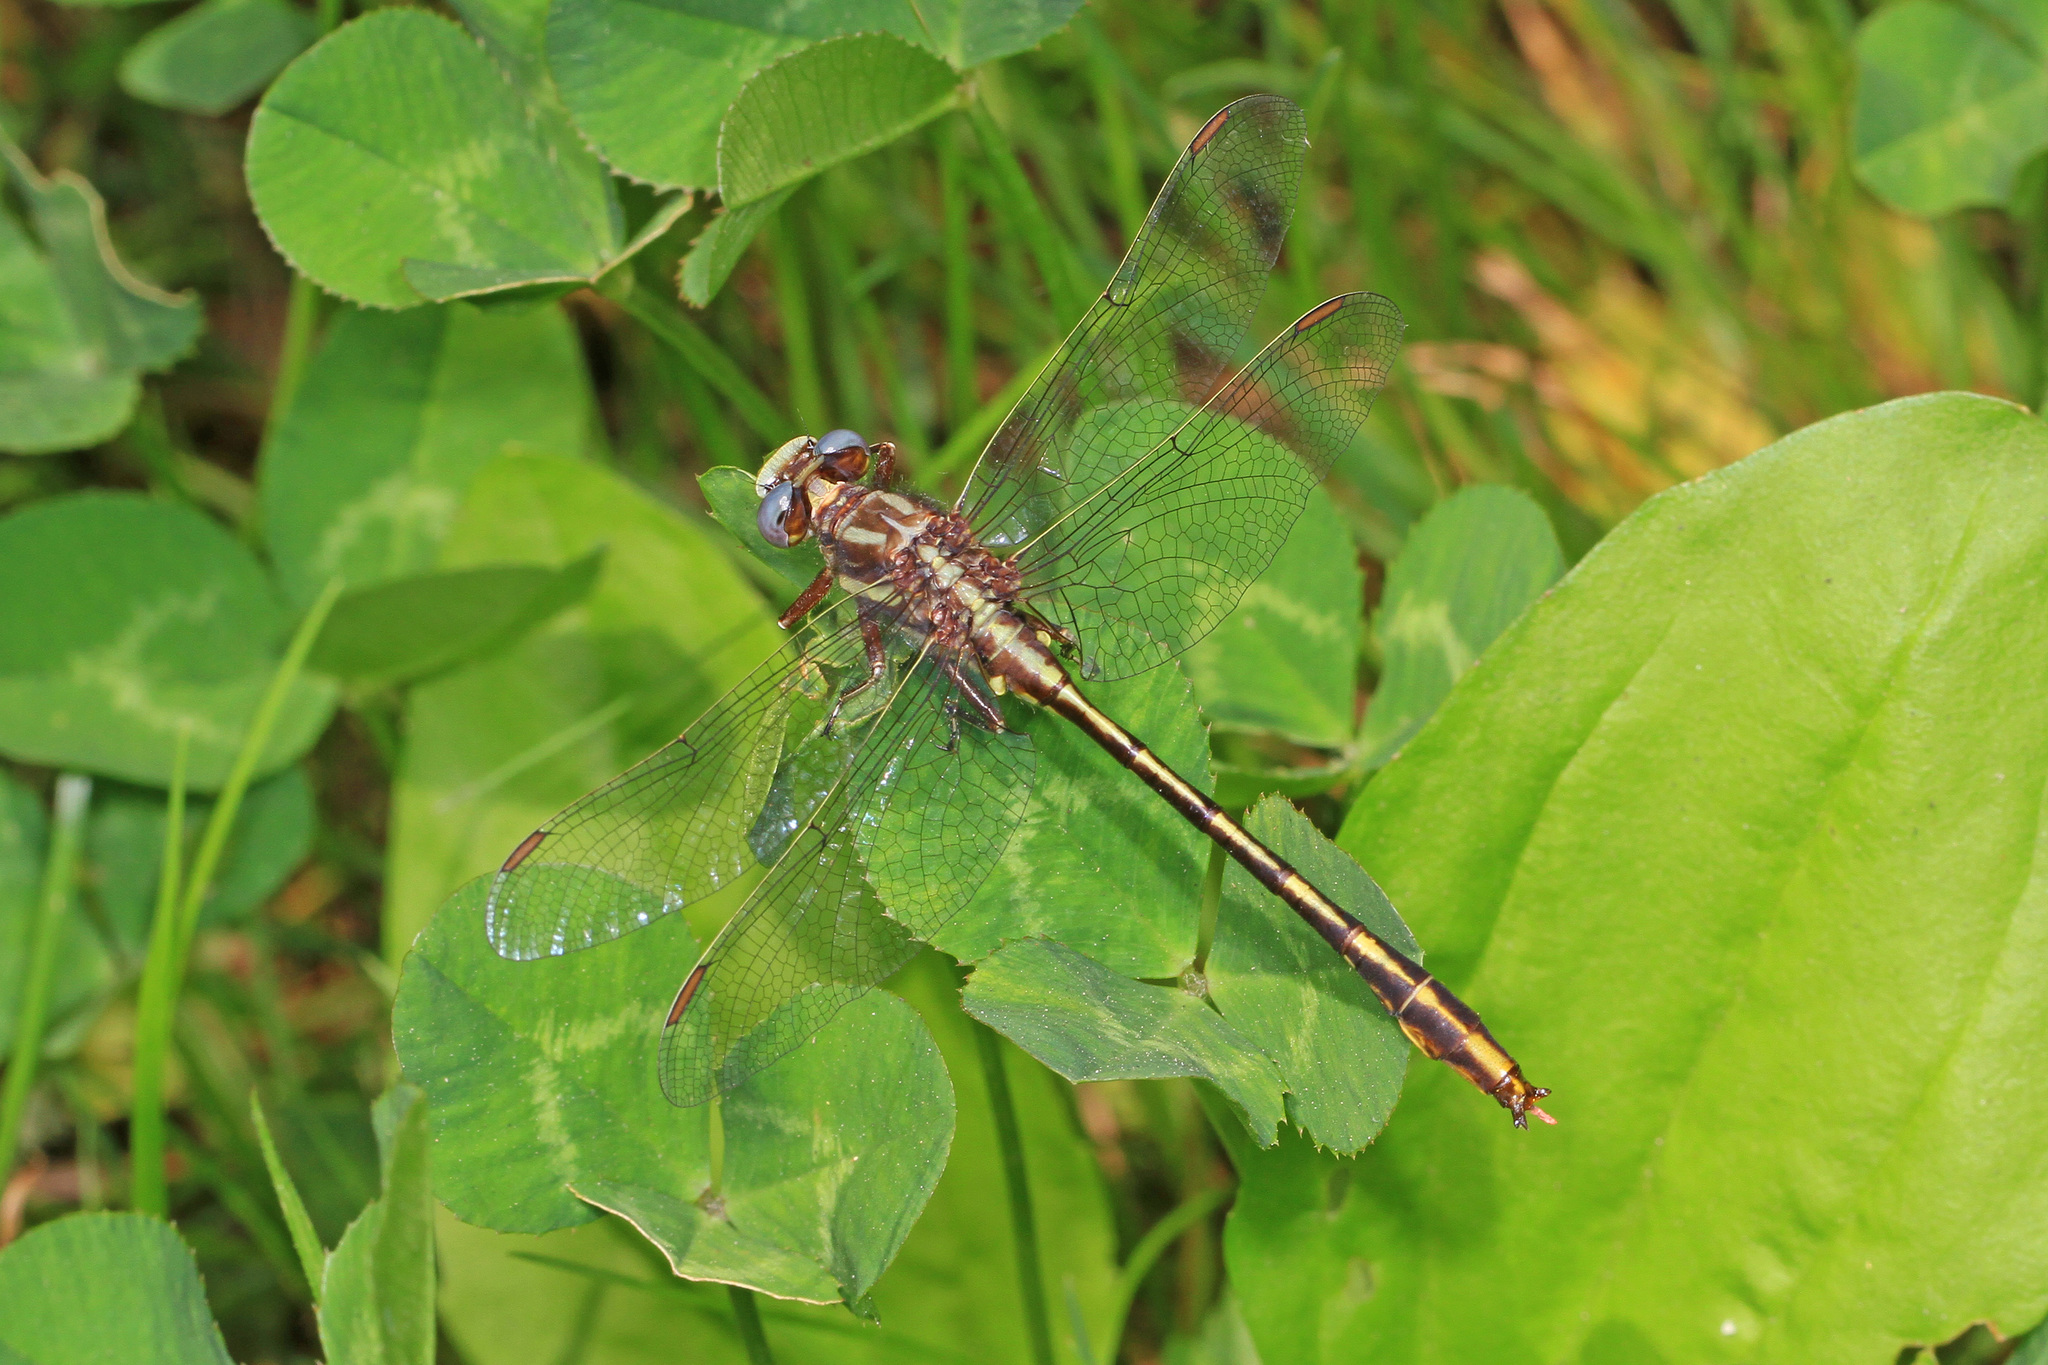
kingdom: Animalia
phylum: Arthropoda
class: Insecta
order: Odonata
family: Gomphidae
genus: Phanogomphus
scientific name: Phanogomphus exilis
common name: Lancet clubtail
